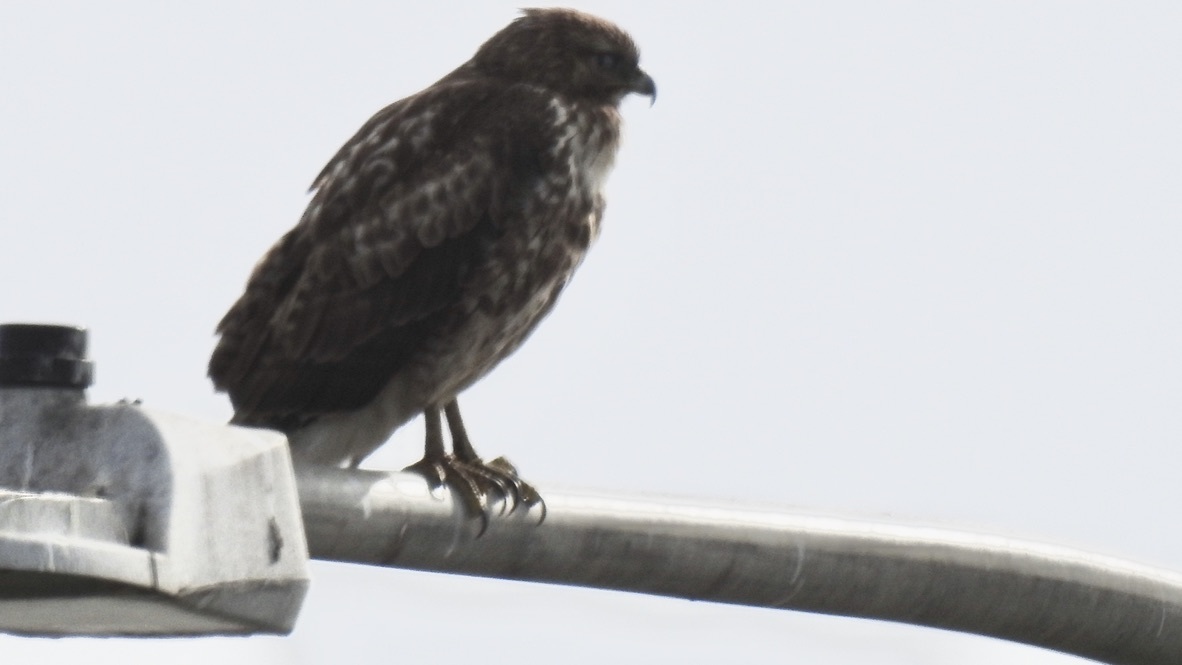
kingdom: Animalia
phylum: Chordata
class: Aves
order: Accipitriformes
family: Accipitridae
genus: Buteo
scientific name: Buteo jamaicensis
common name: Red-tailed hawk
